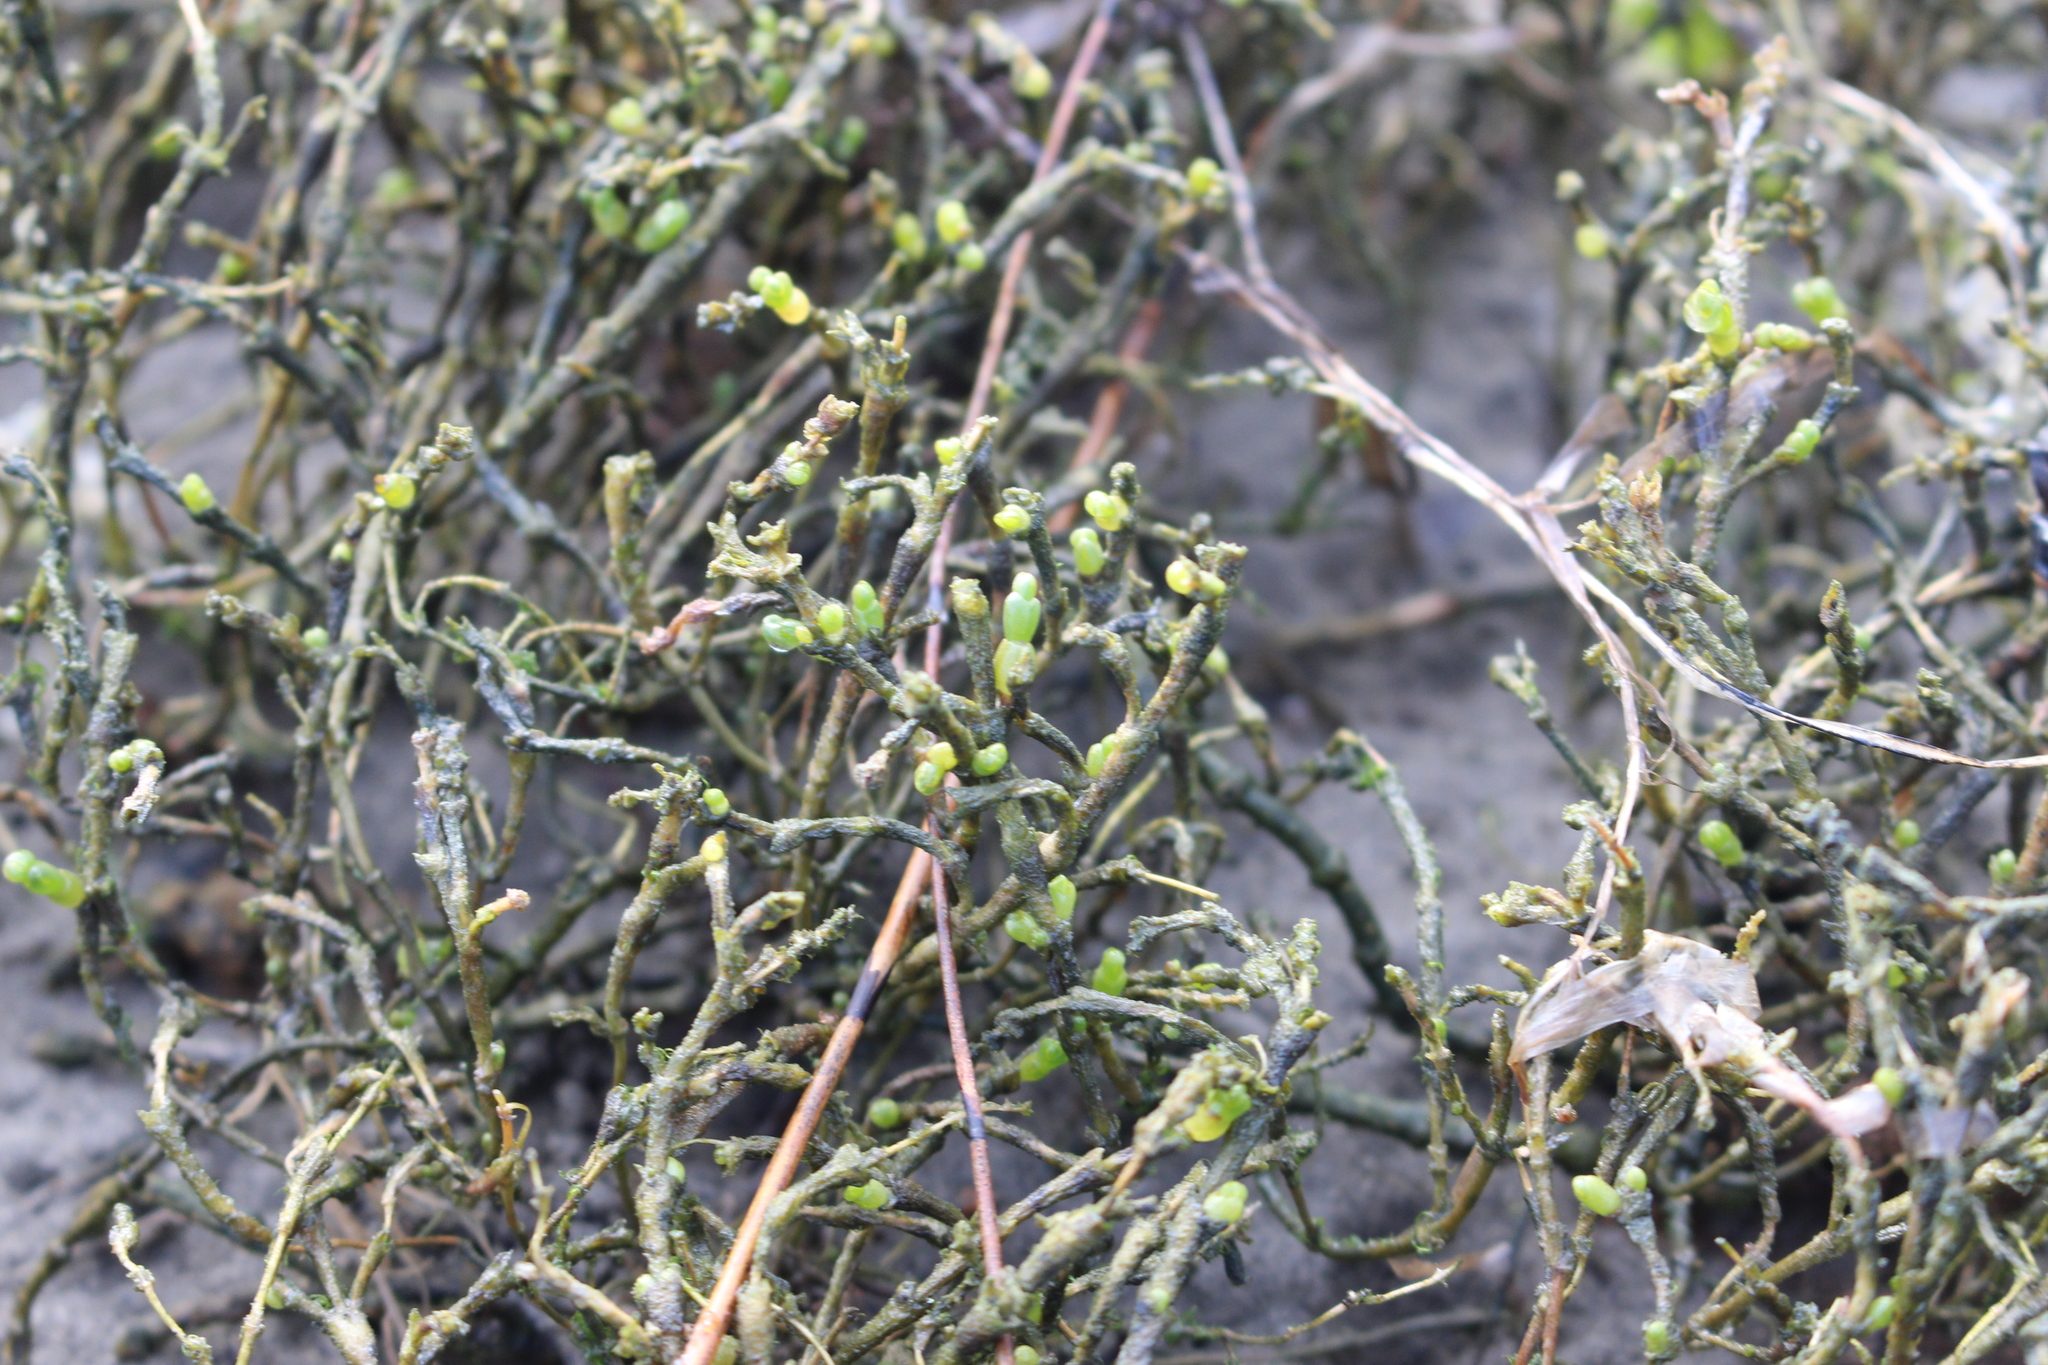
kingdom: Plantae
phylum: Tracheophyta
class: Magnoliopsida
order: Caryophyllales
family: Amaranthaceae
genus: Salicornia
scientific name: Salicornia quinqueflora
